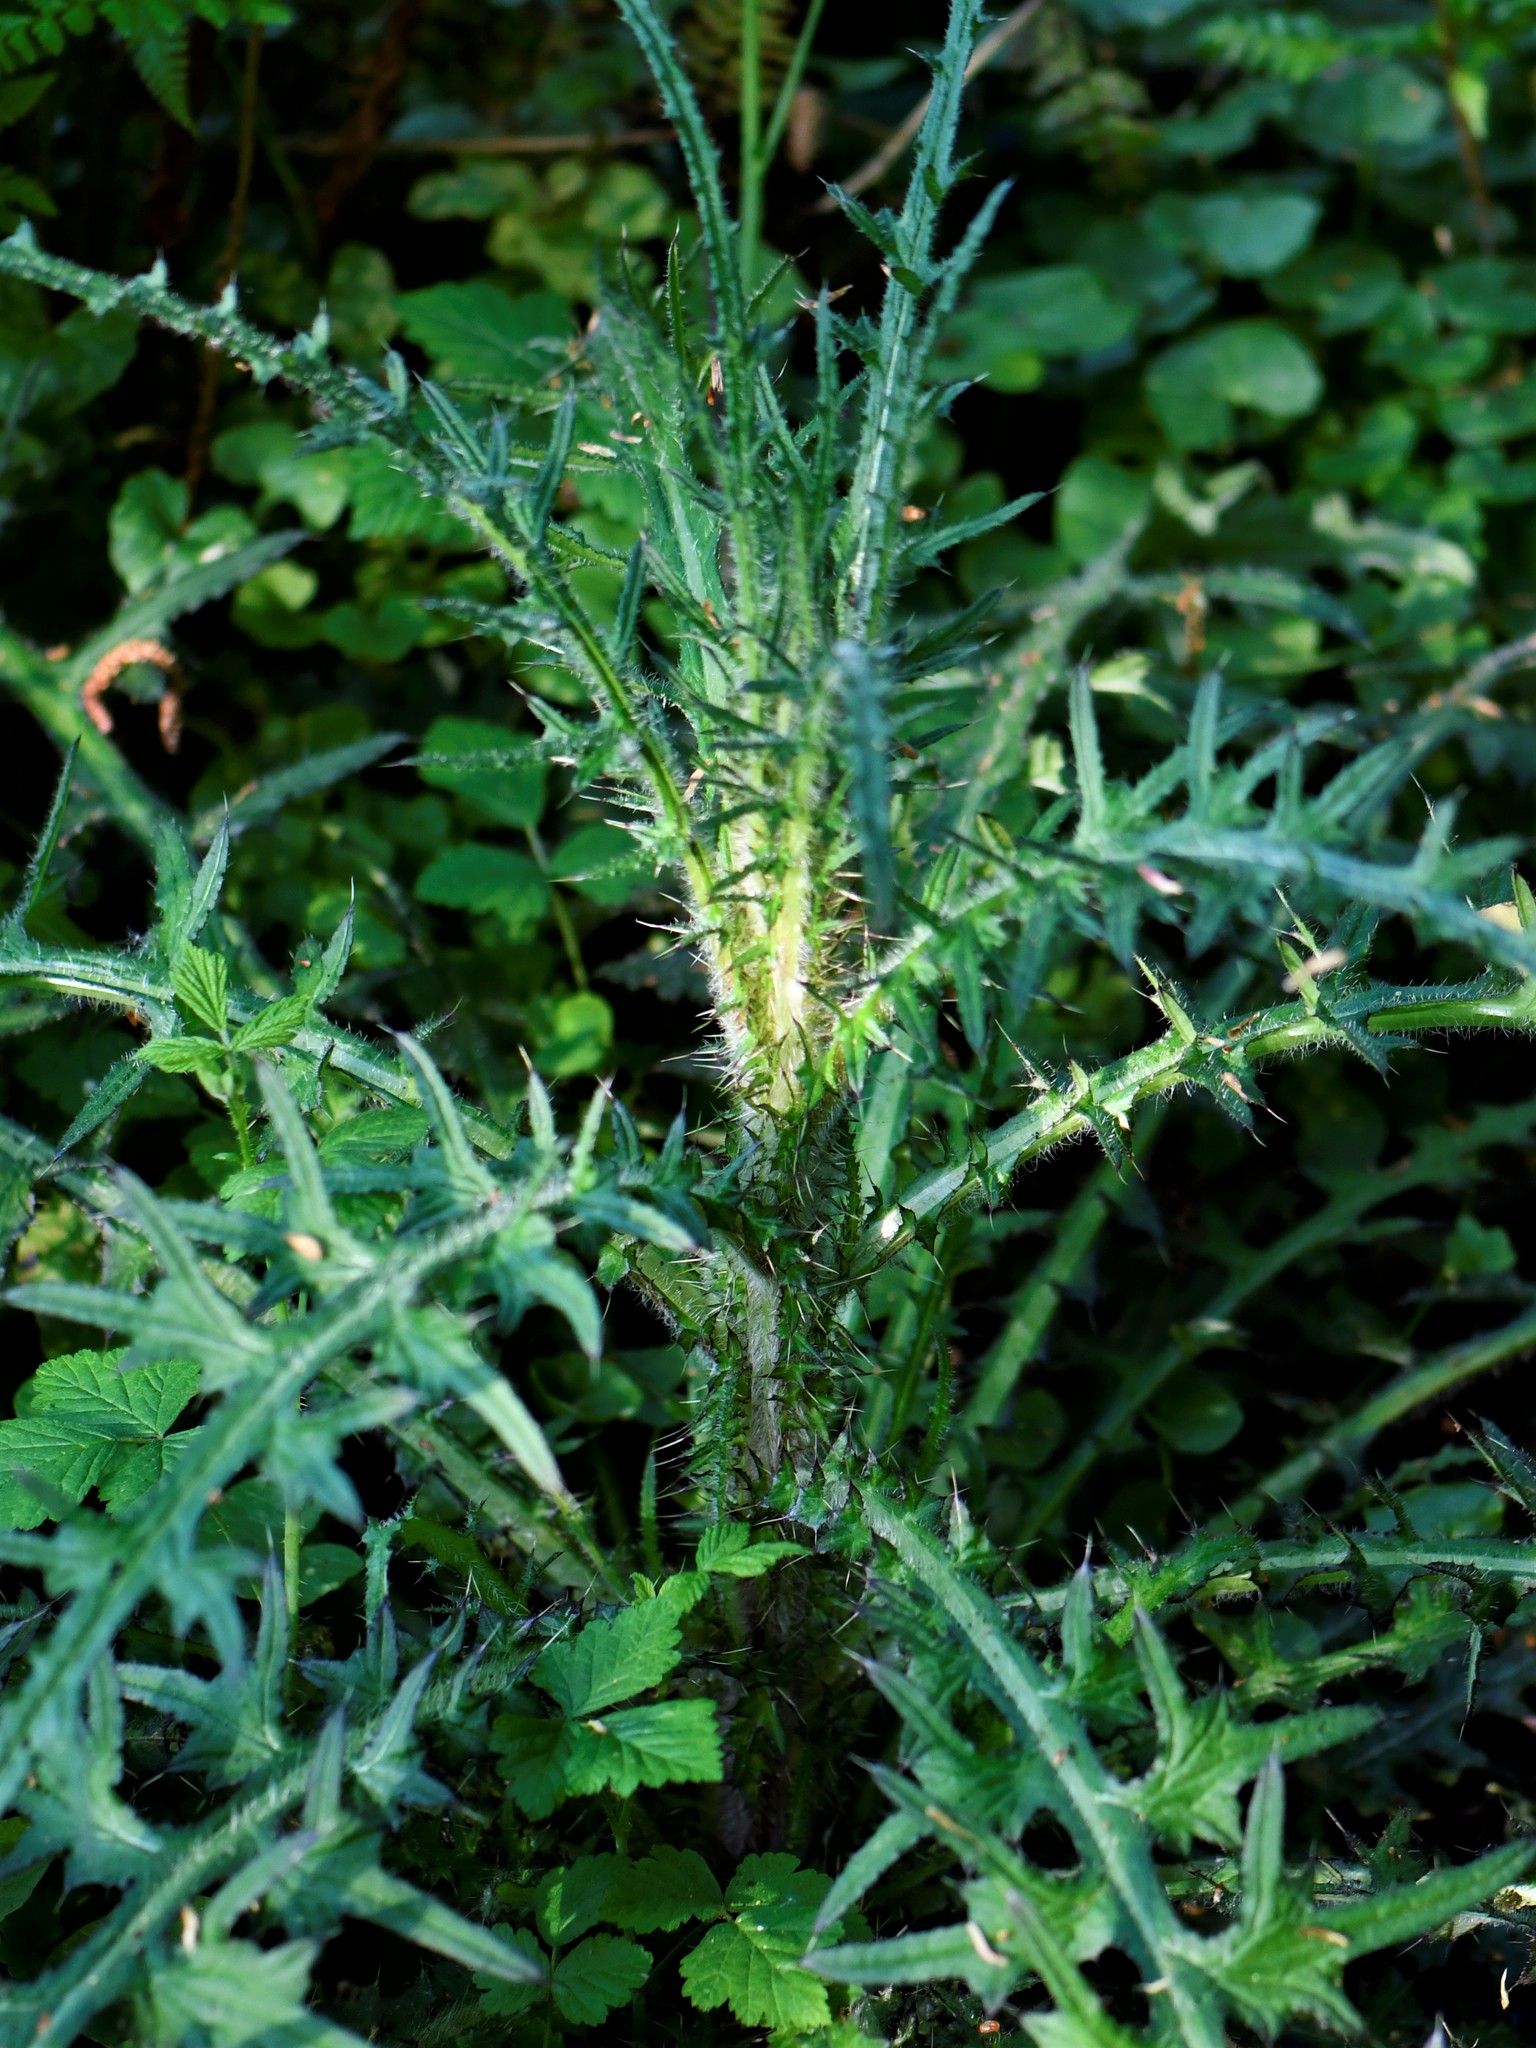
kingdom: Plantae
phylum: Tracheophyta
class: Magnoliopsida
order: Asterales
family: Asteraceae
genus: Cirsium
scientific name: Cirsium palustre
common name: Marsh thistle
